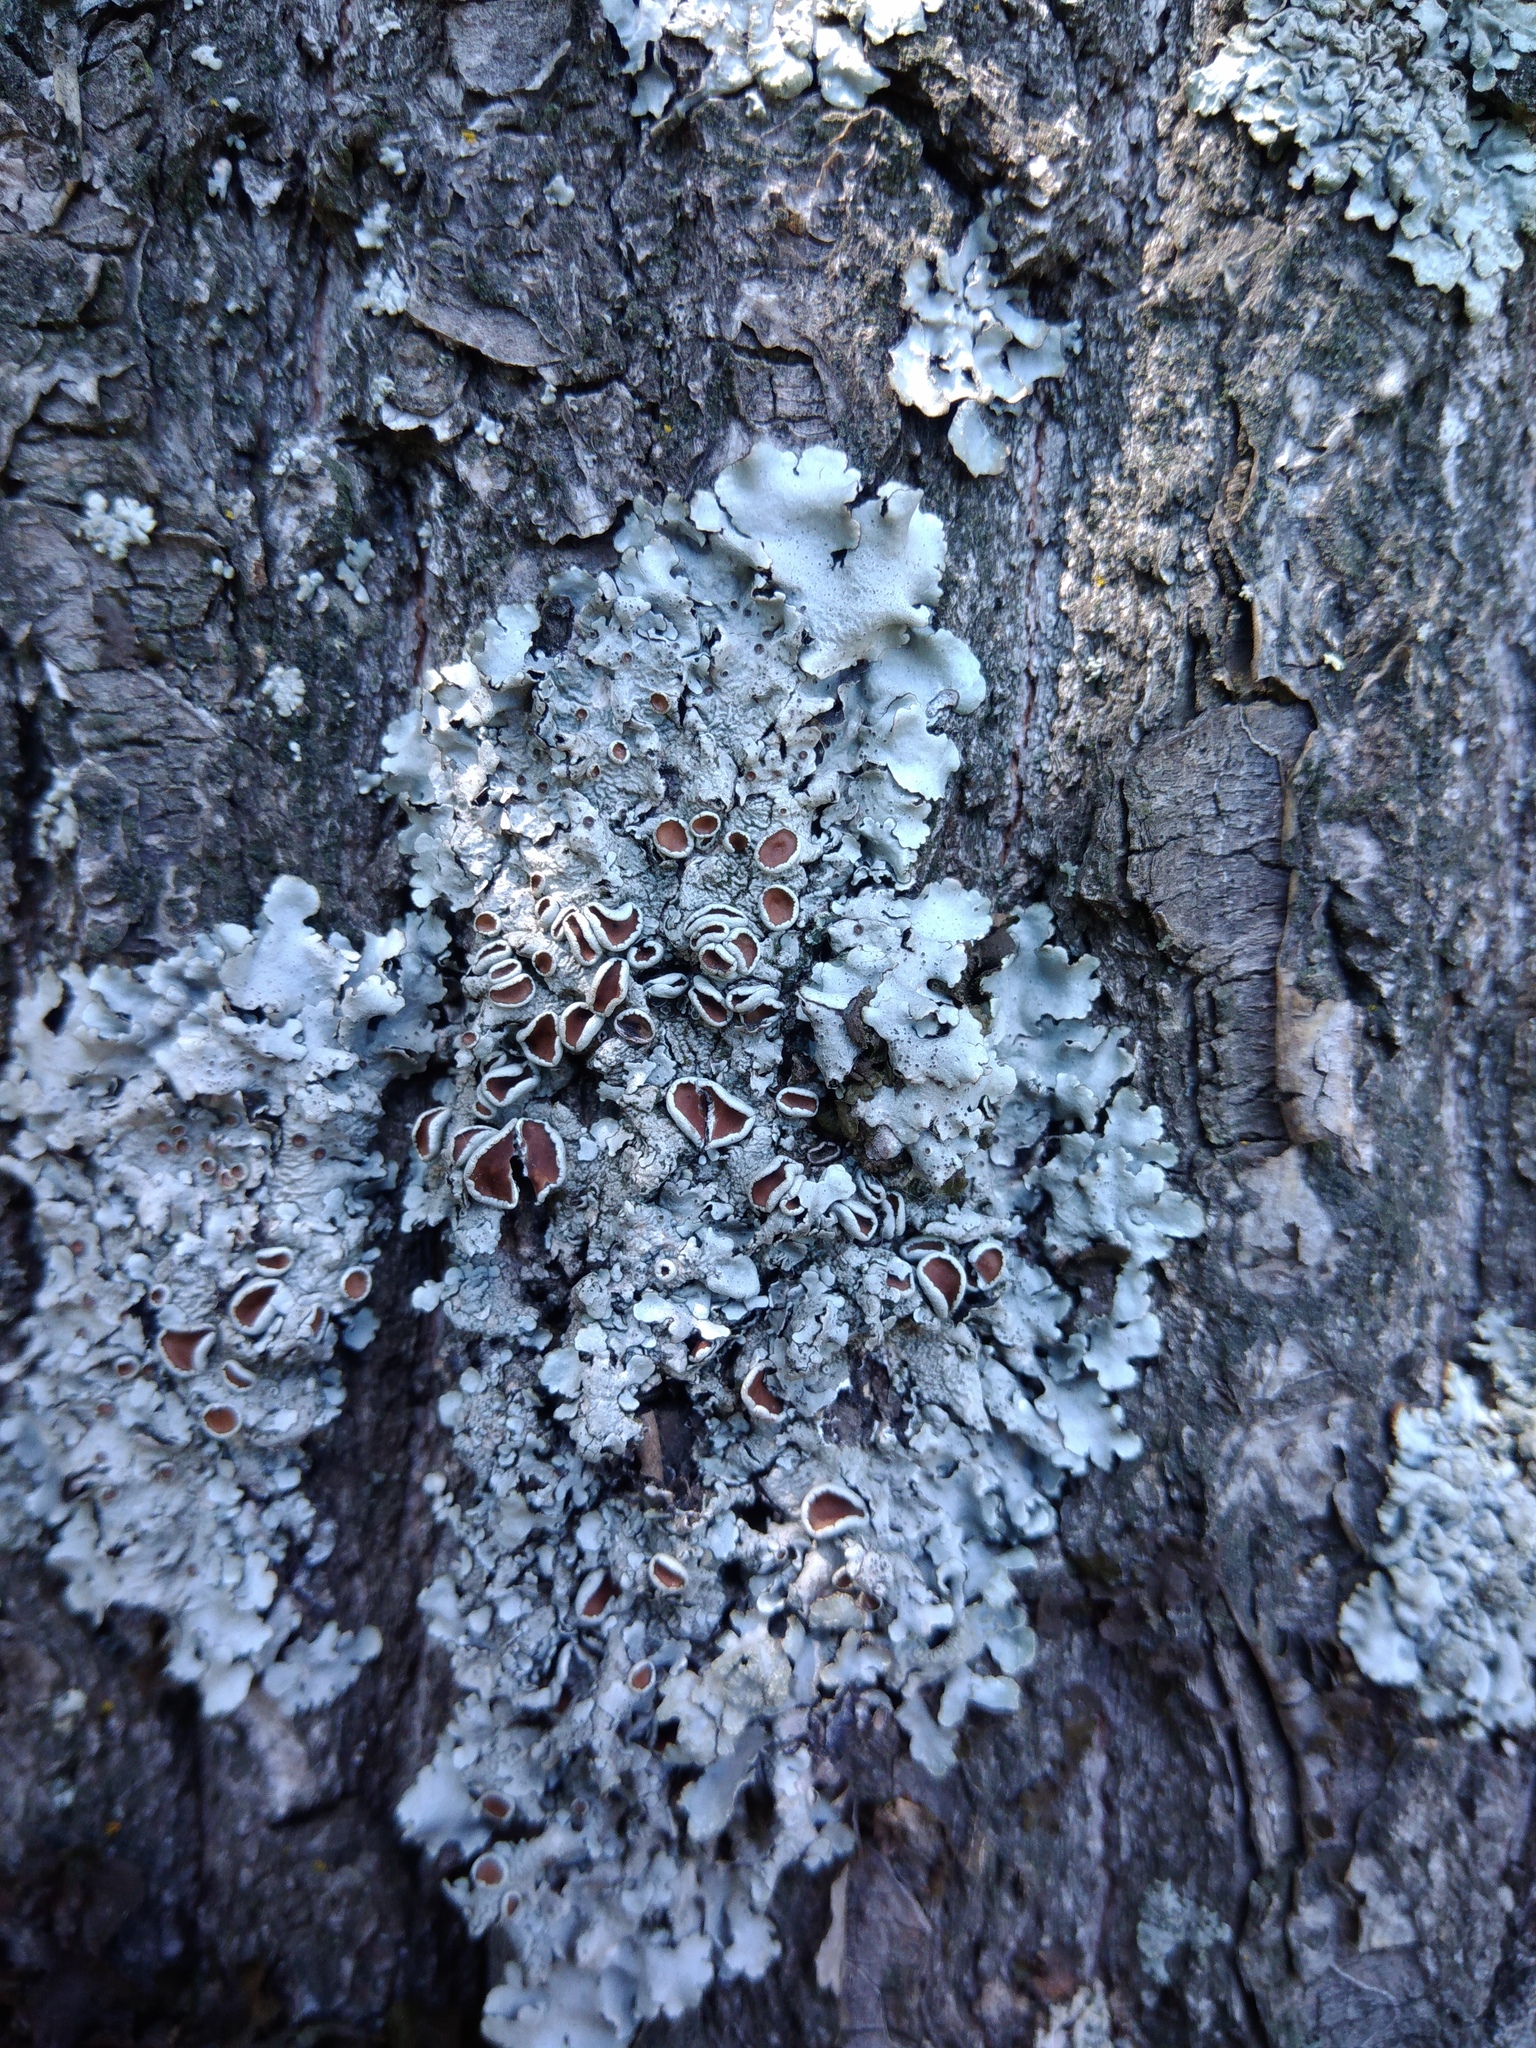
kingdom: Fungi
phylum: Ascomycota
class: Lecanoromycetes
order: Lecanorales
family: Parmeliaceae
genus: Parmelina
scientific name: Parmelina quercina
